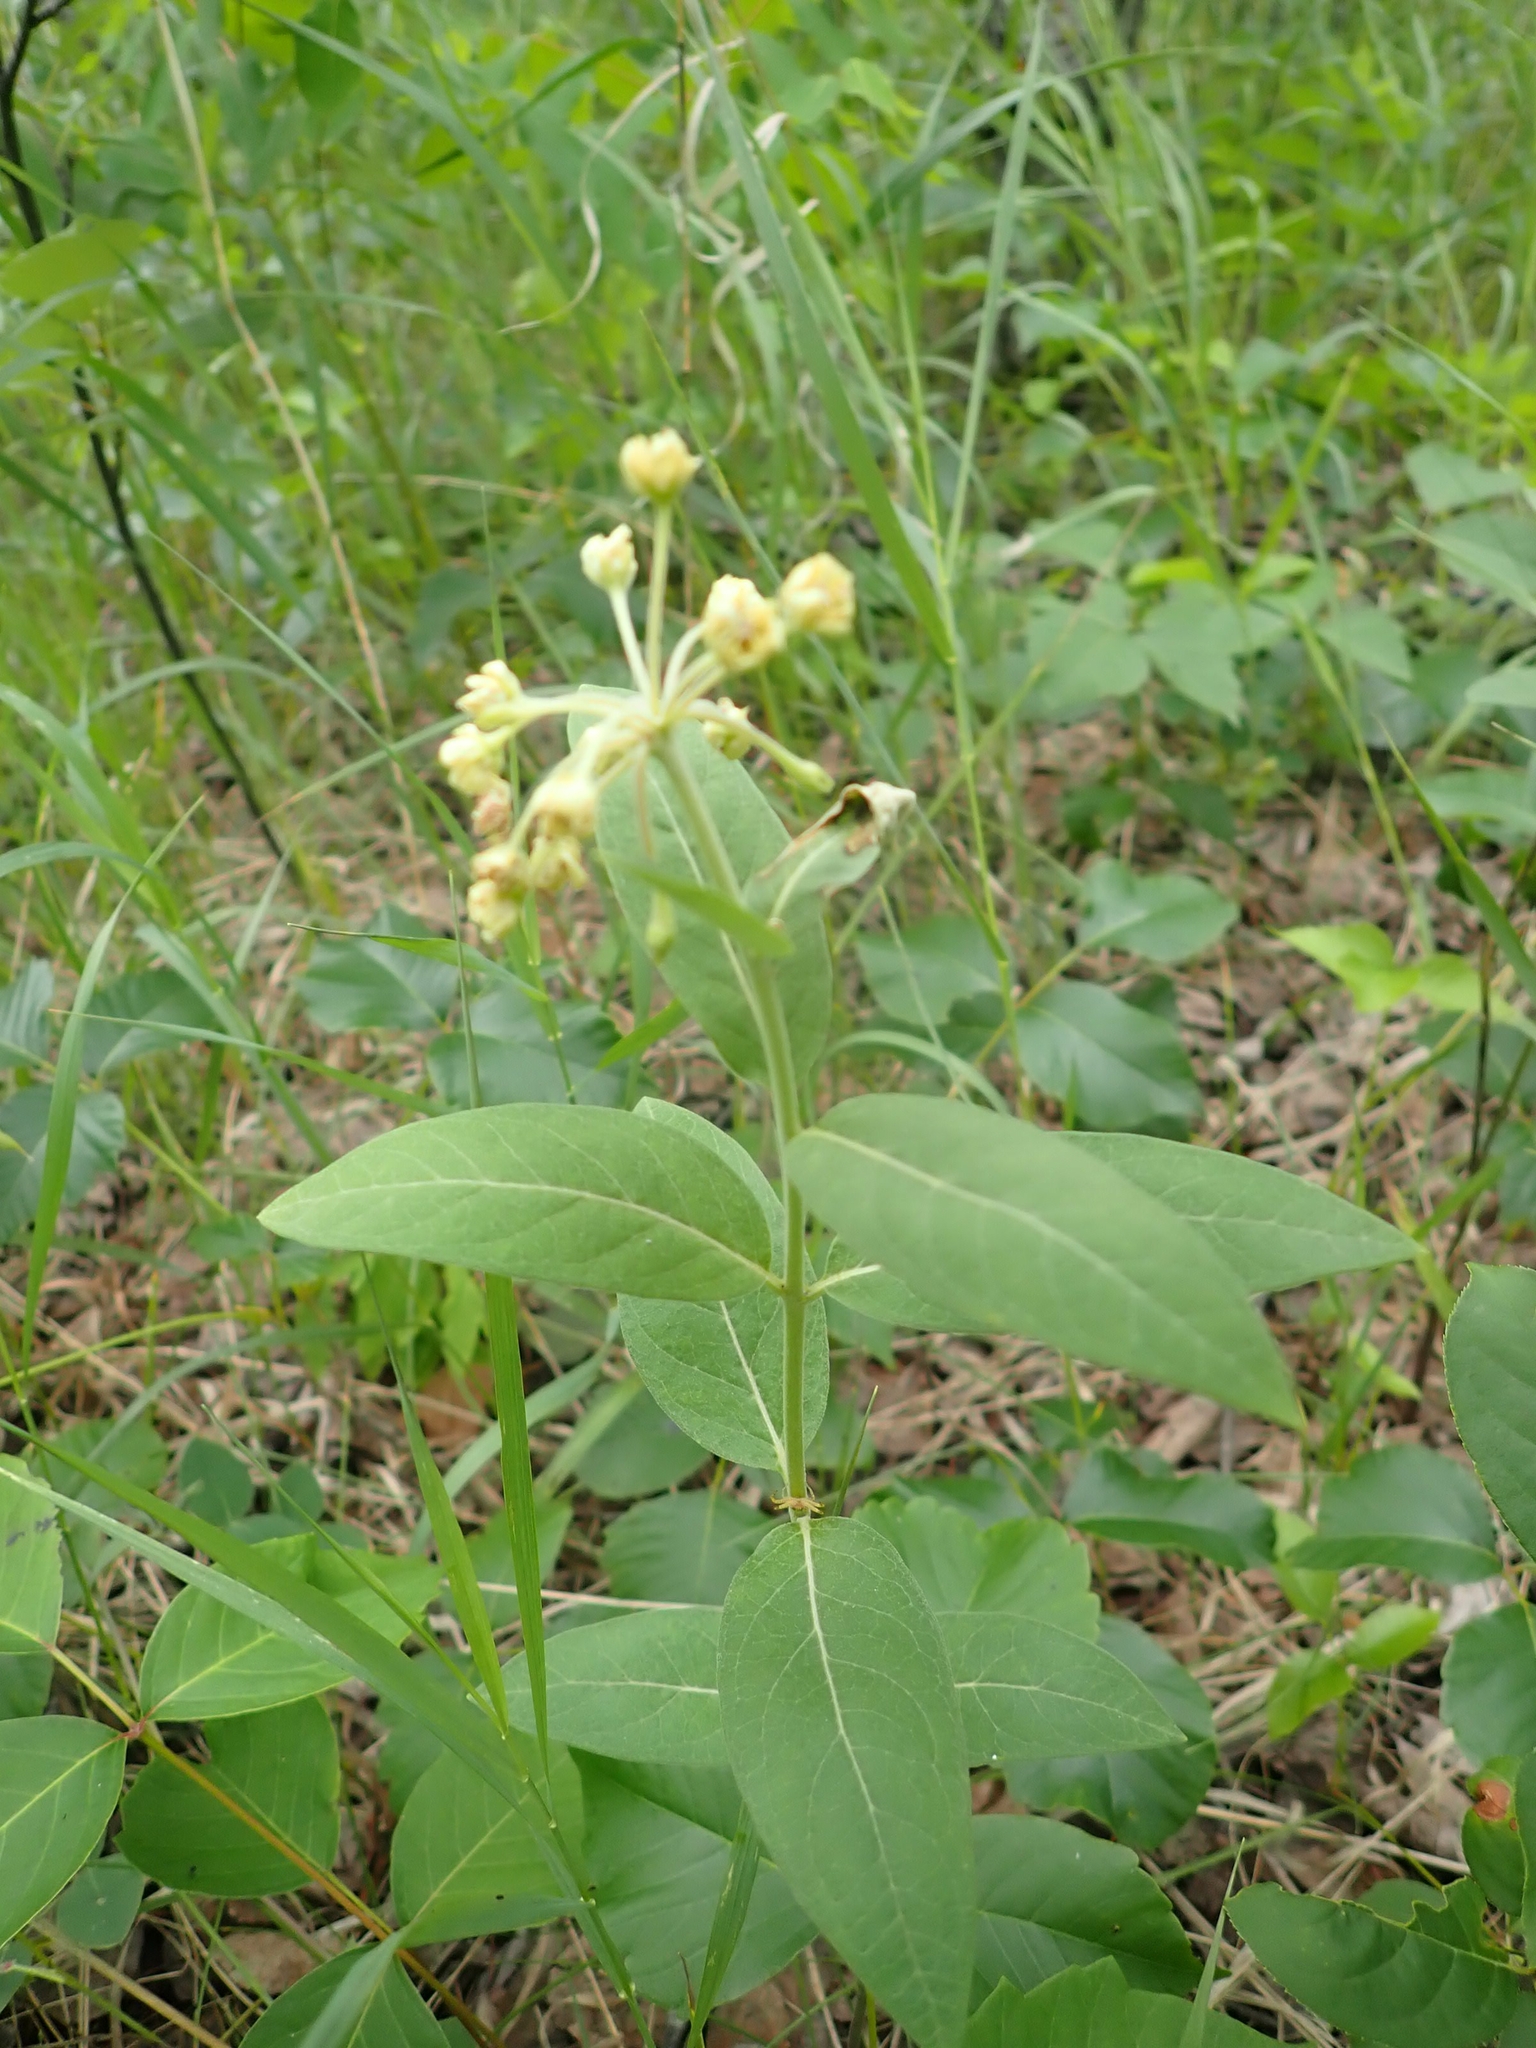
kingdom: Plantae
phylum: Tracheophyta
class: Magnoliopsida
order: Gentianales
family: Apocynaceae
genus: Asclepias
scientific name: Asclepias ovalifolia
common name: Dwarf milkweed
